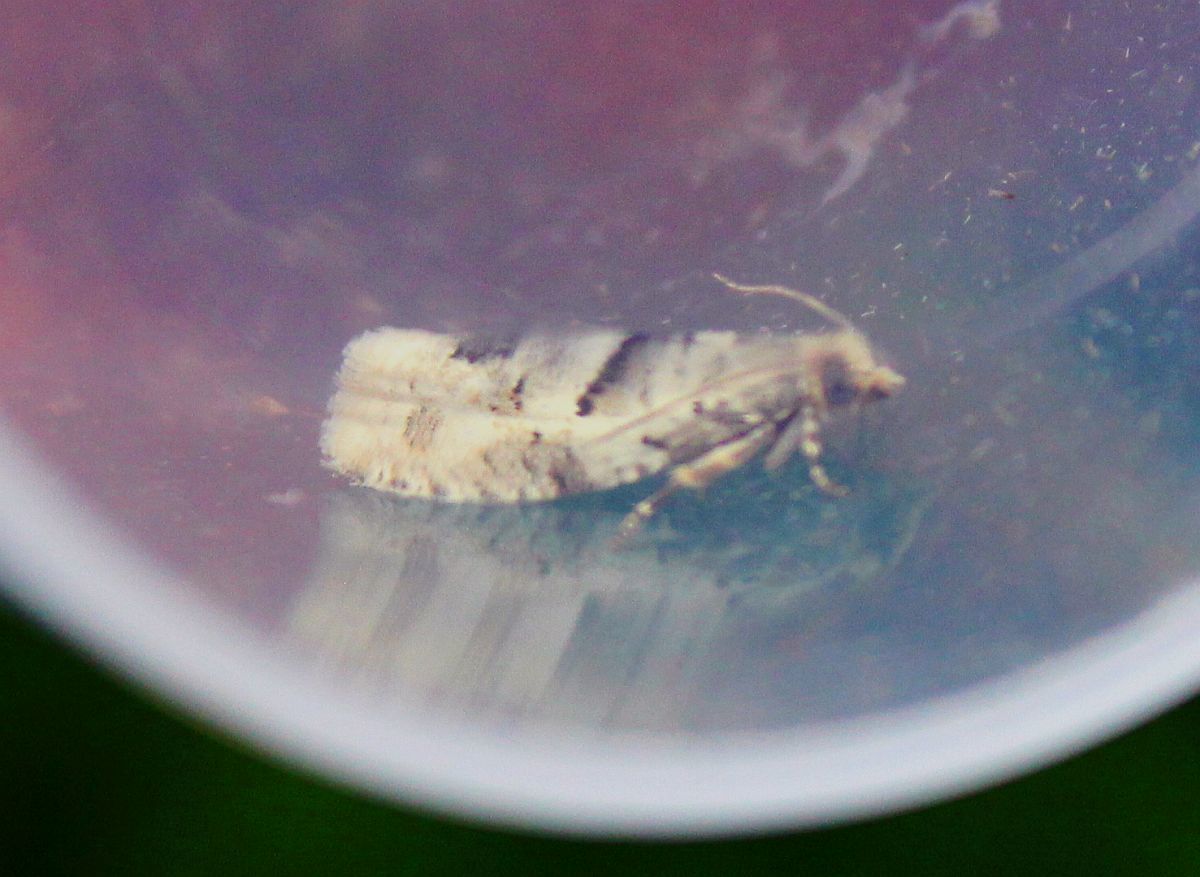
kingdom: Animalia
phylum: Arthropoda
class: Insecta
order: Lepidoptera
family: Tortricidae
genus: Epinotia
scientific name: Epinotia bilunana
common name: Crescent bell
